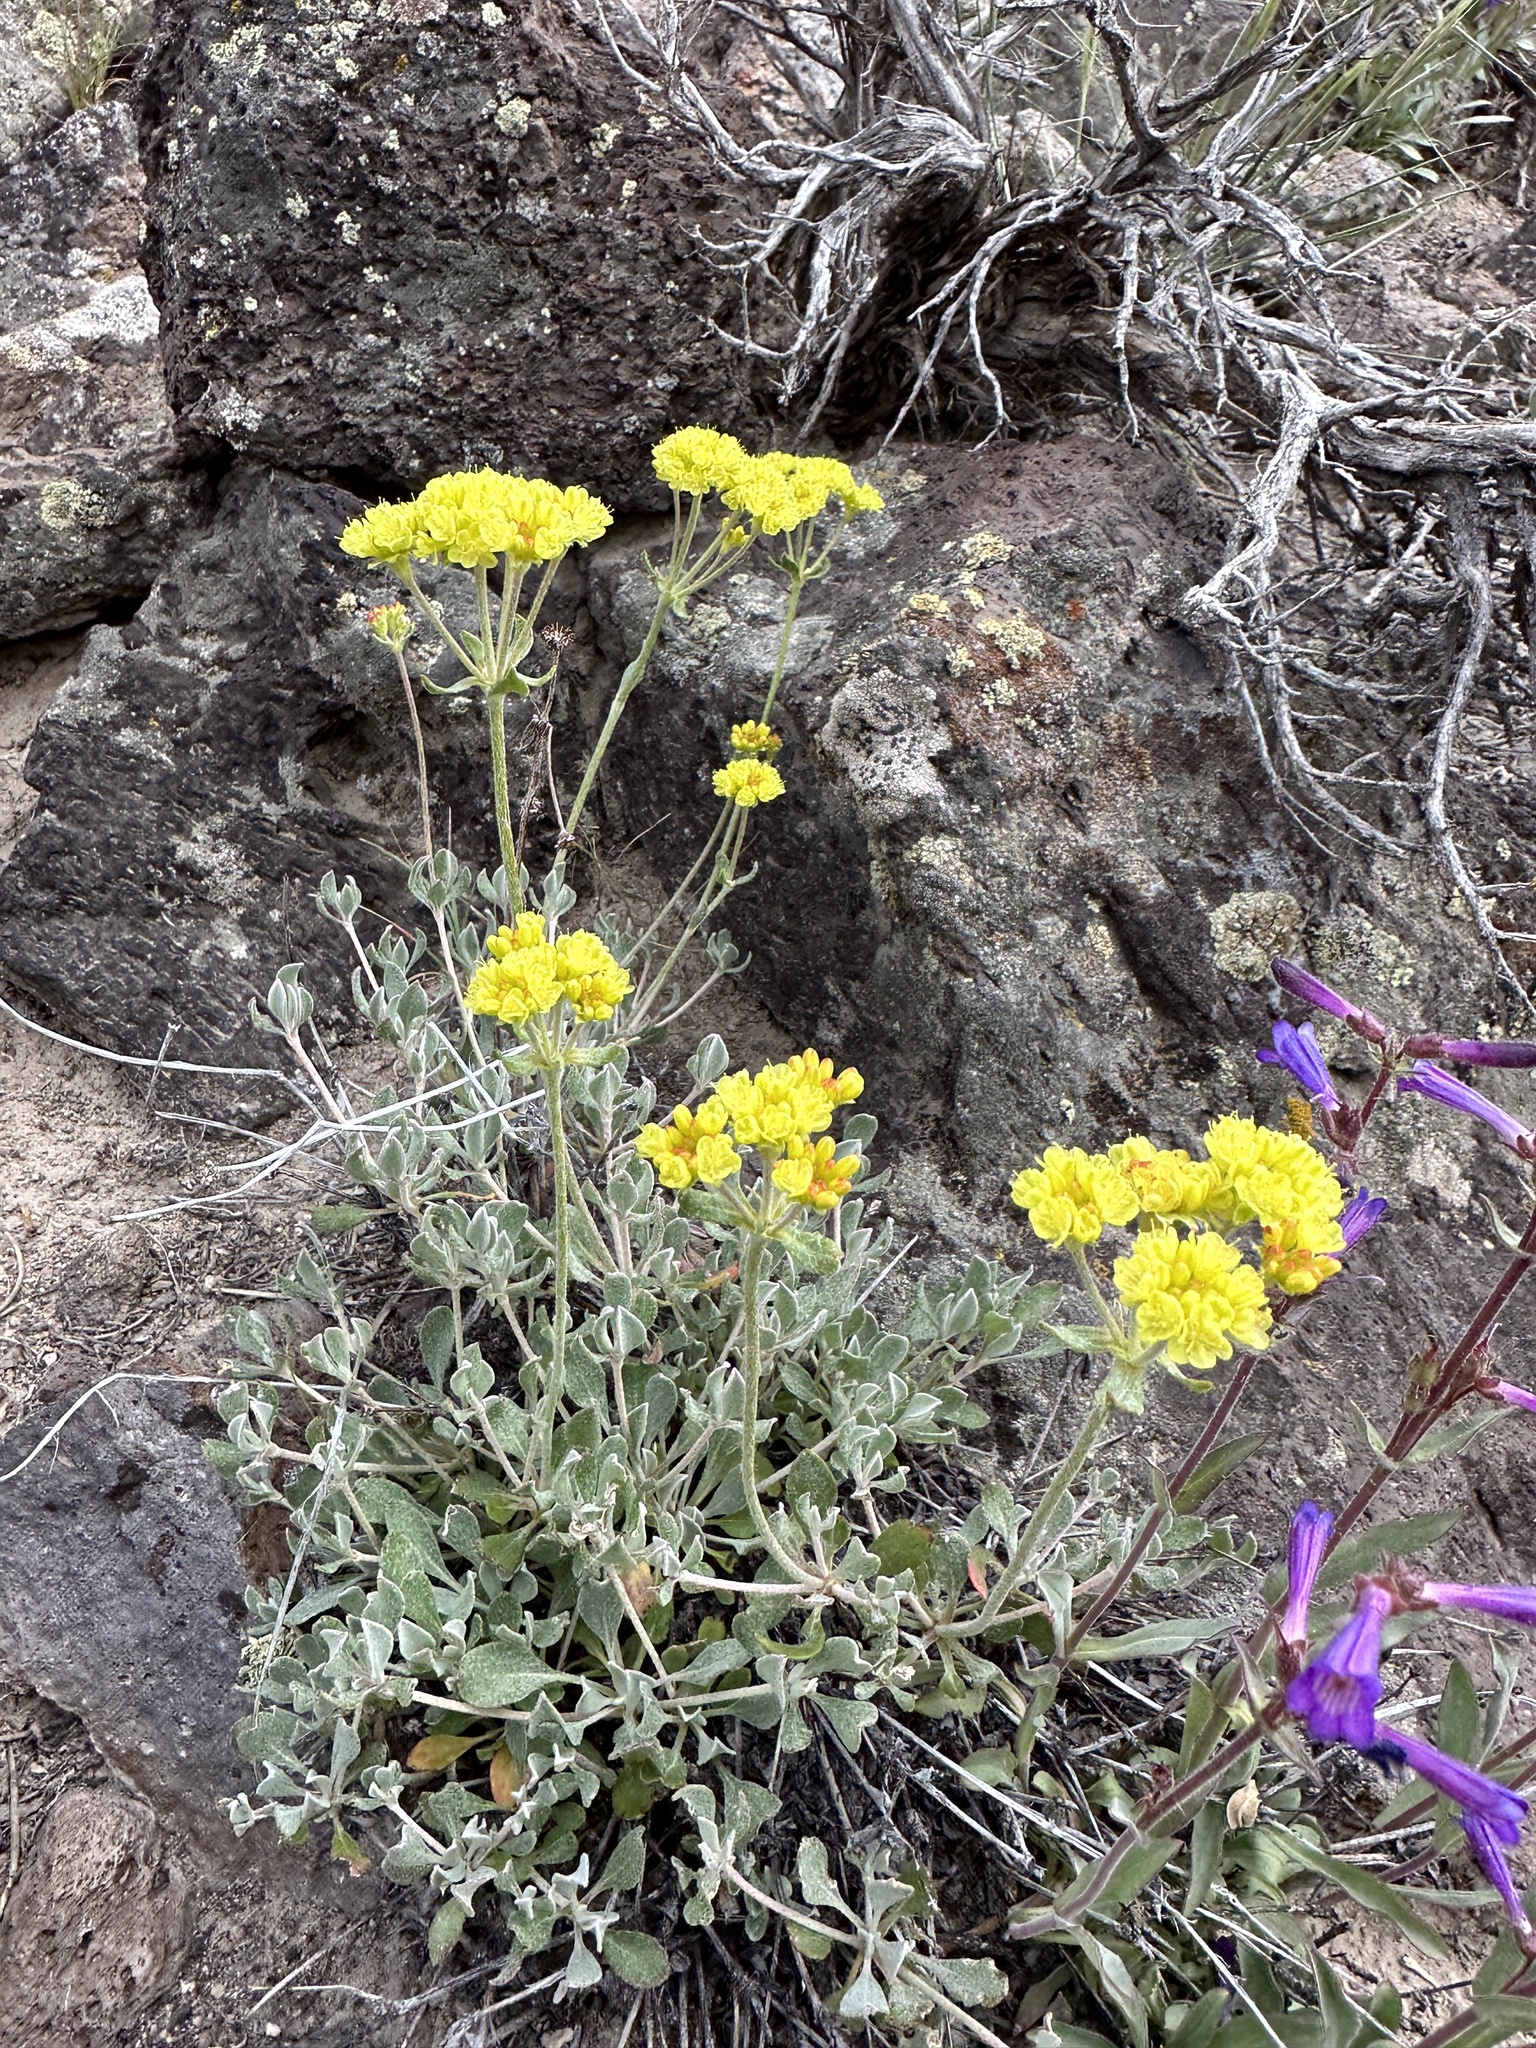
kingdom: Plantae
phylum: Tracheophyta
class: Magnoliopsida
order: Caryophyllales
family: Polygonaceae
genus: Eriogonum
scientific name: Eriogonum umbellatum
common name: Sulfur-buckwheat
